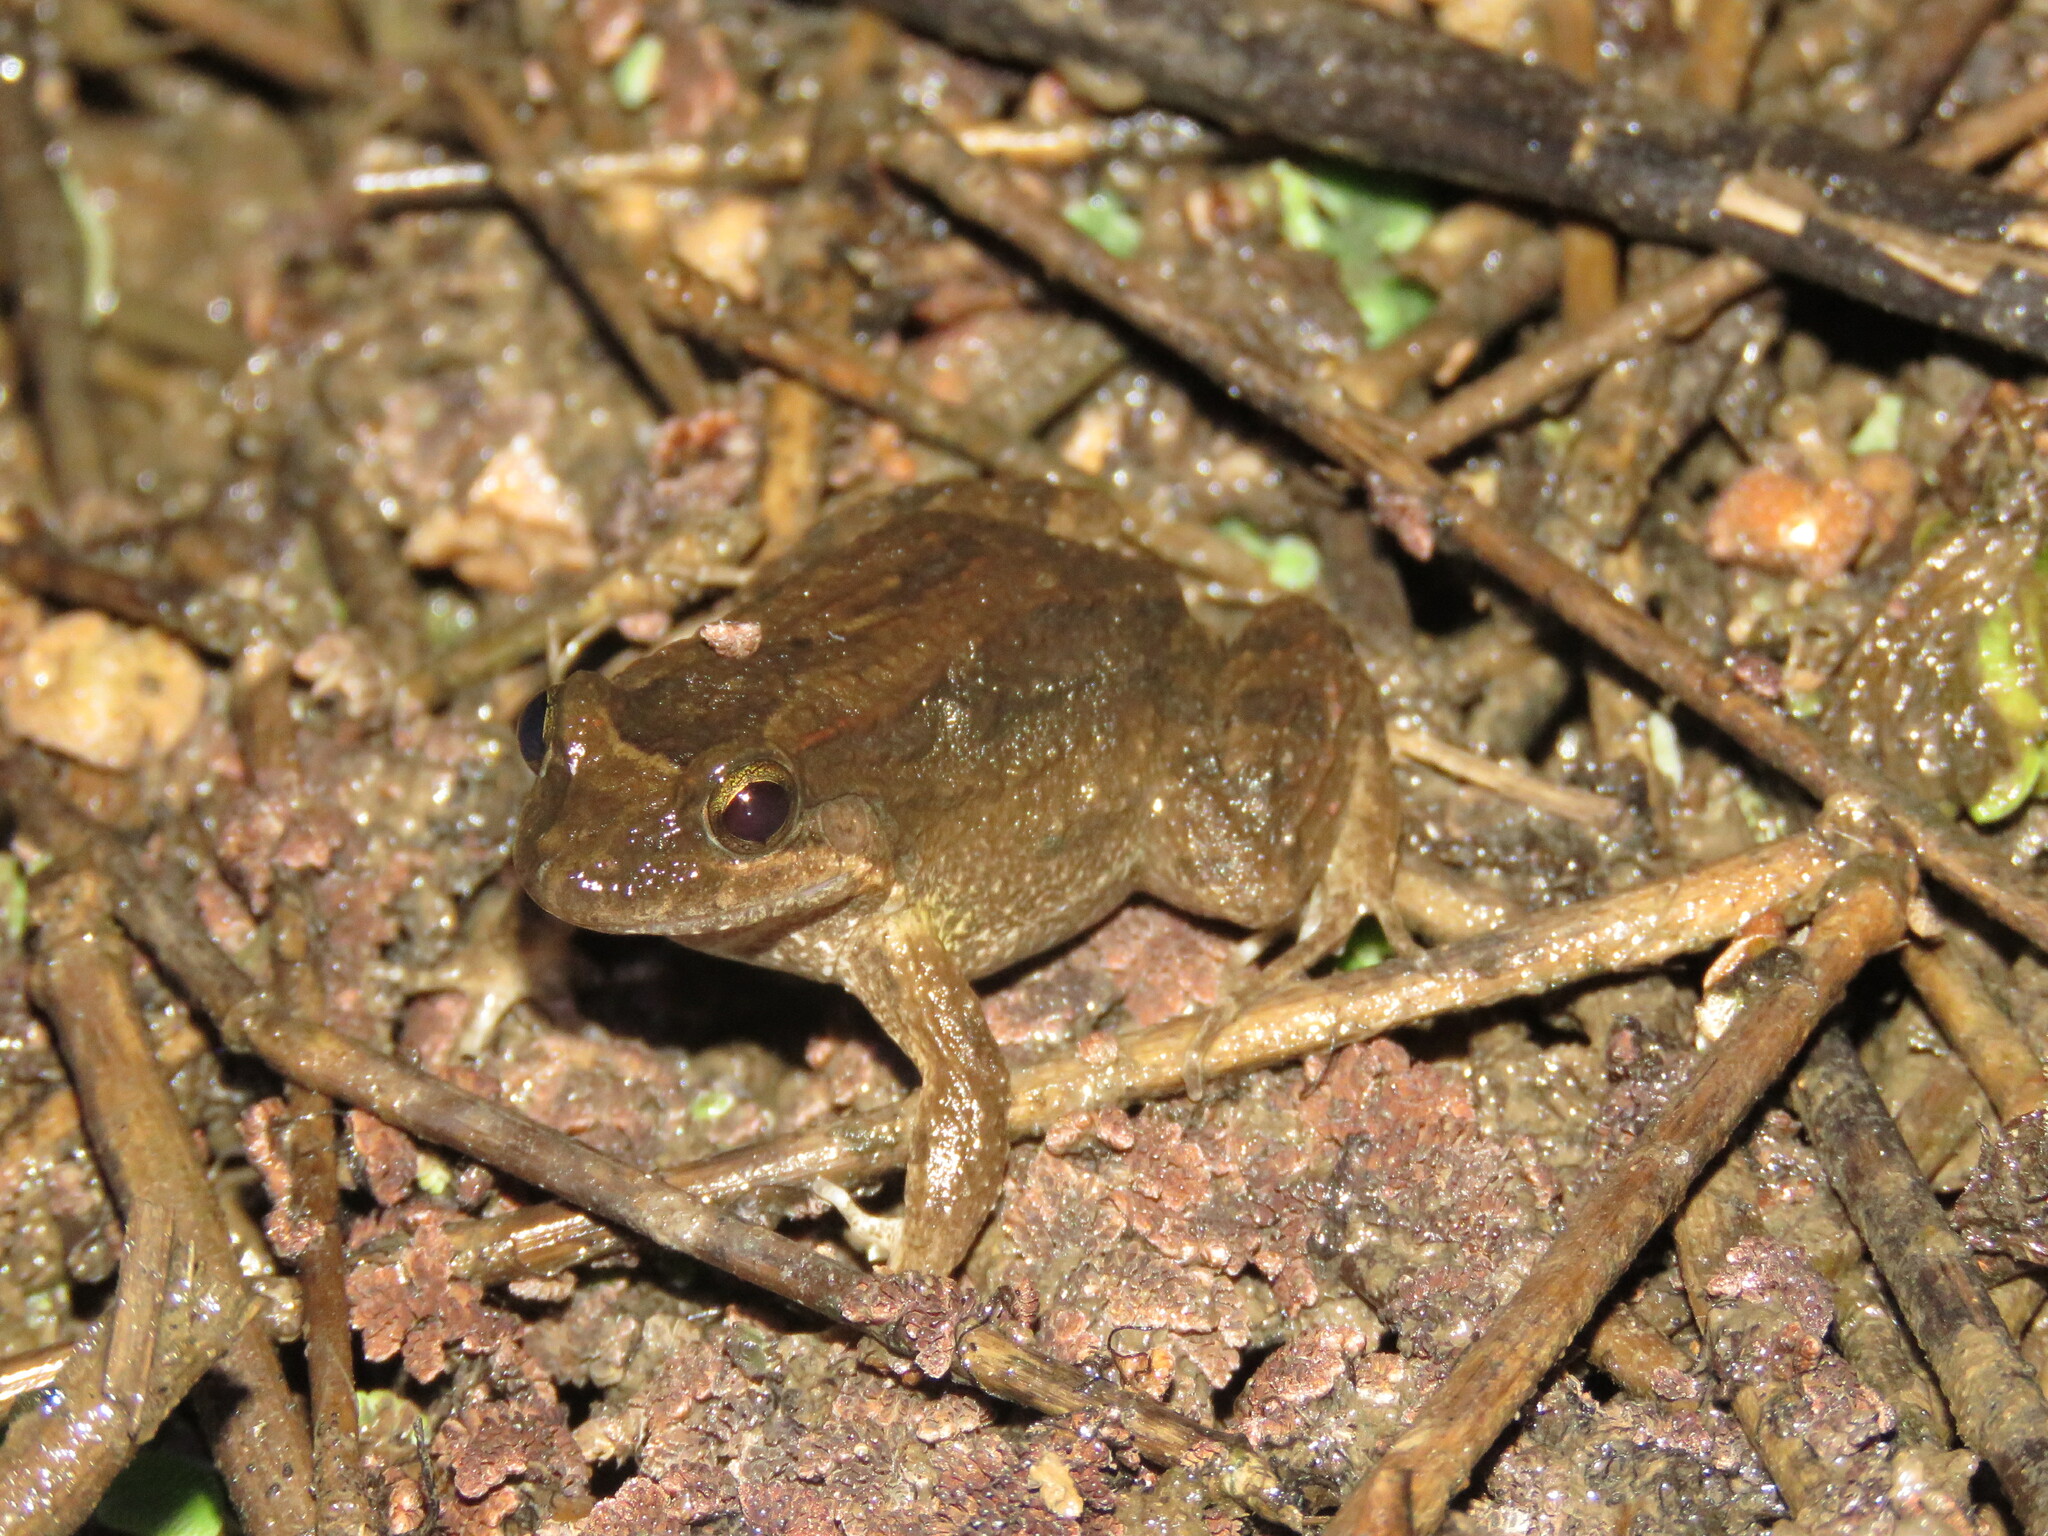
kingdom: Animalia
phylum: Chordata
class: Amphibia
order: Anura
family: Leptodactylidae
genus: Leptodactylus
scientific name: Leptodactylus petersii
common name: Peters' thin-toed frog
